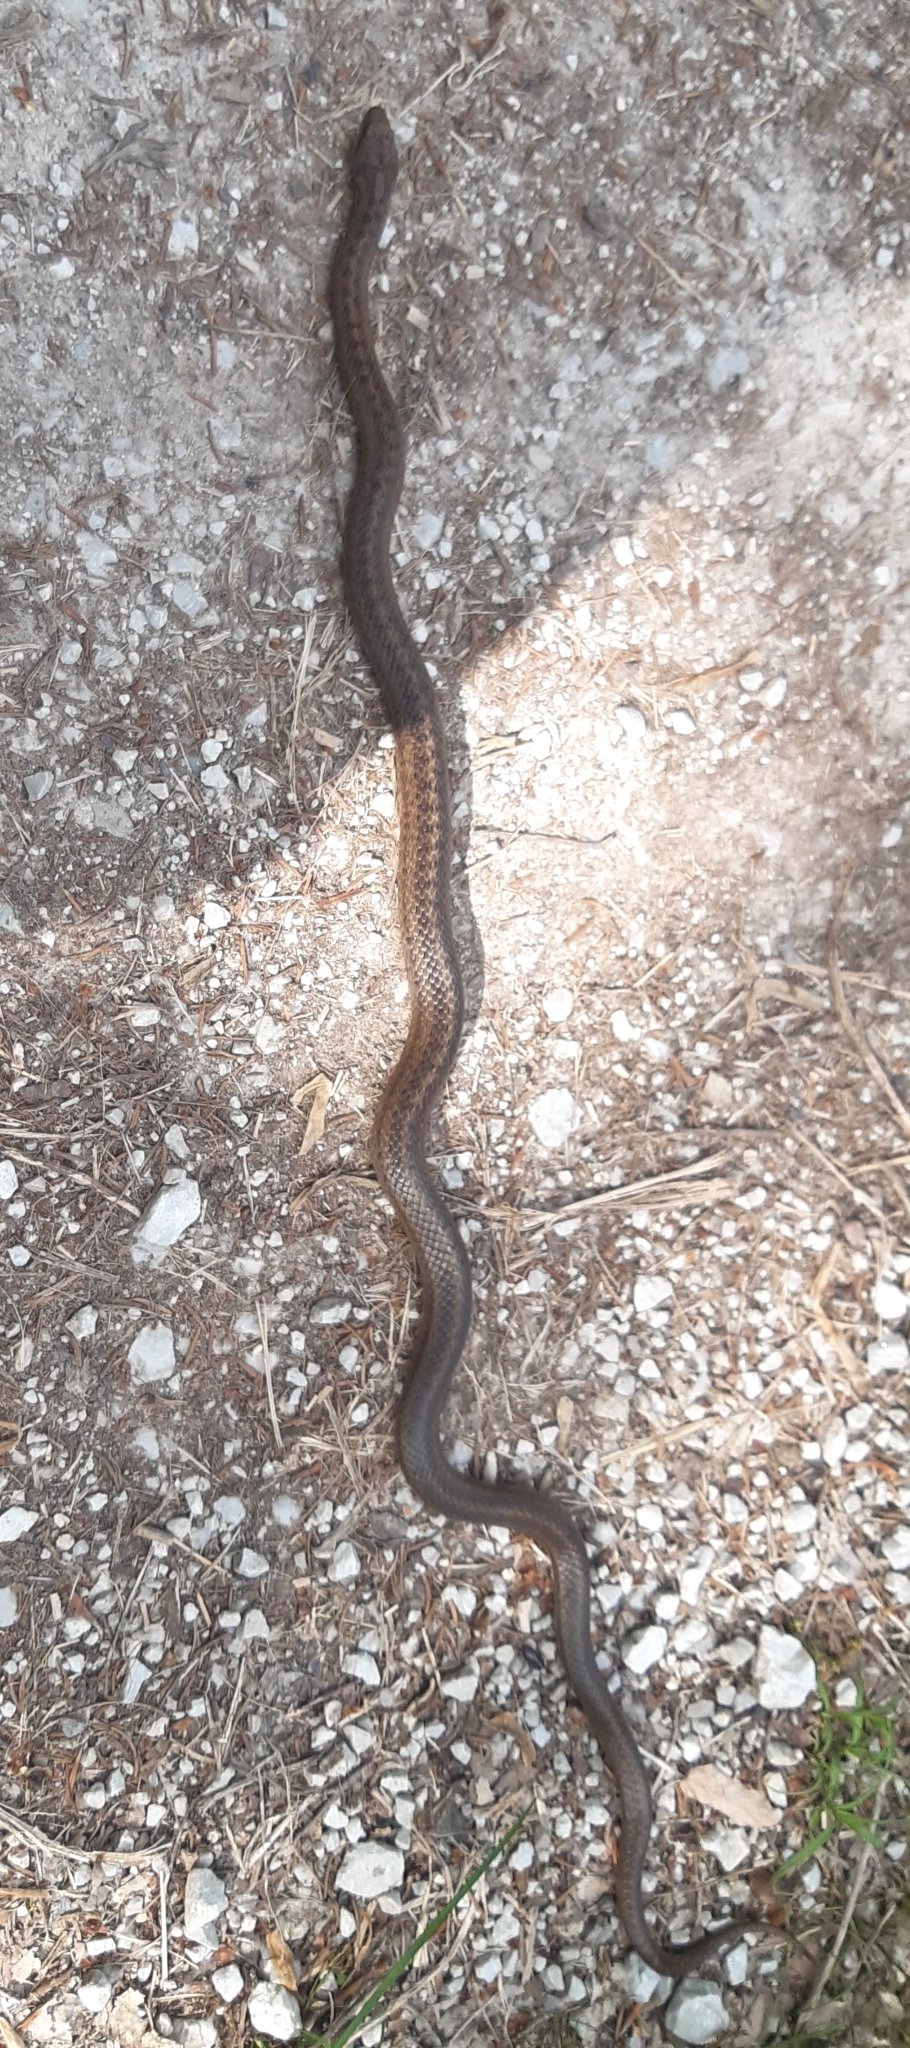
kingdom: Animalia
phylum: Chordata
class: Squamata
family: Colubridae
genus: Coronella
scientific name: Coronella austriaca
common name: Smooth snake
